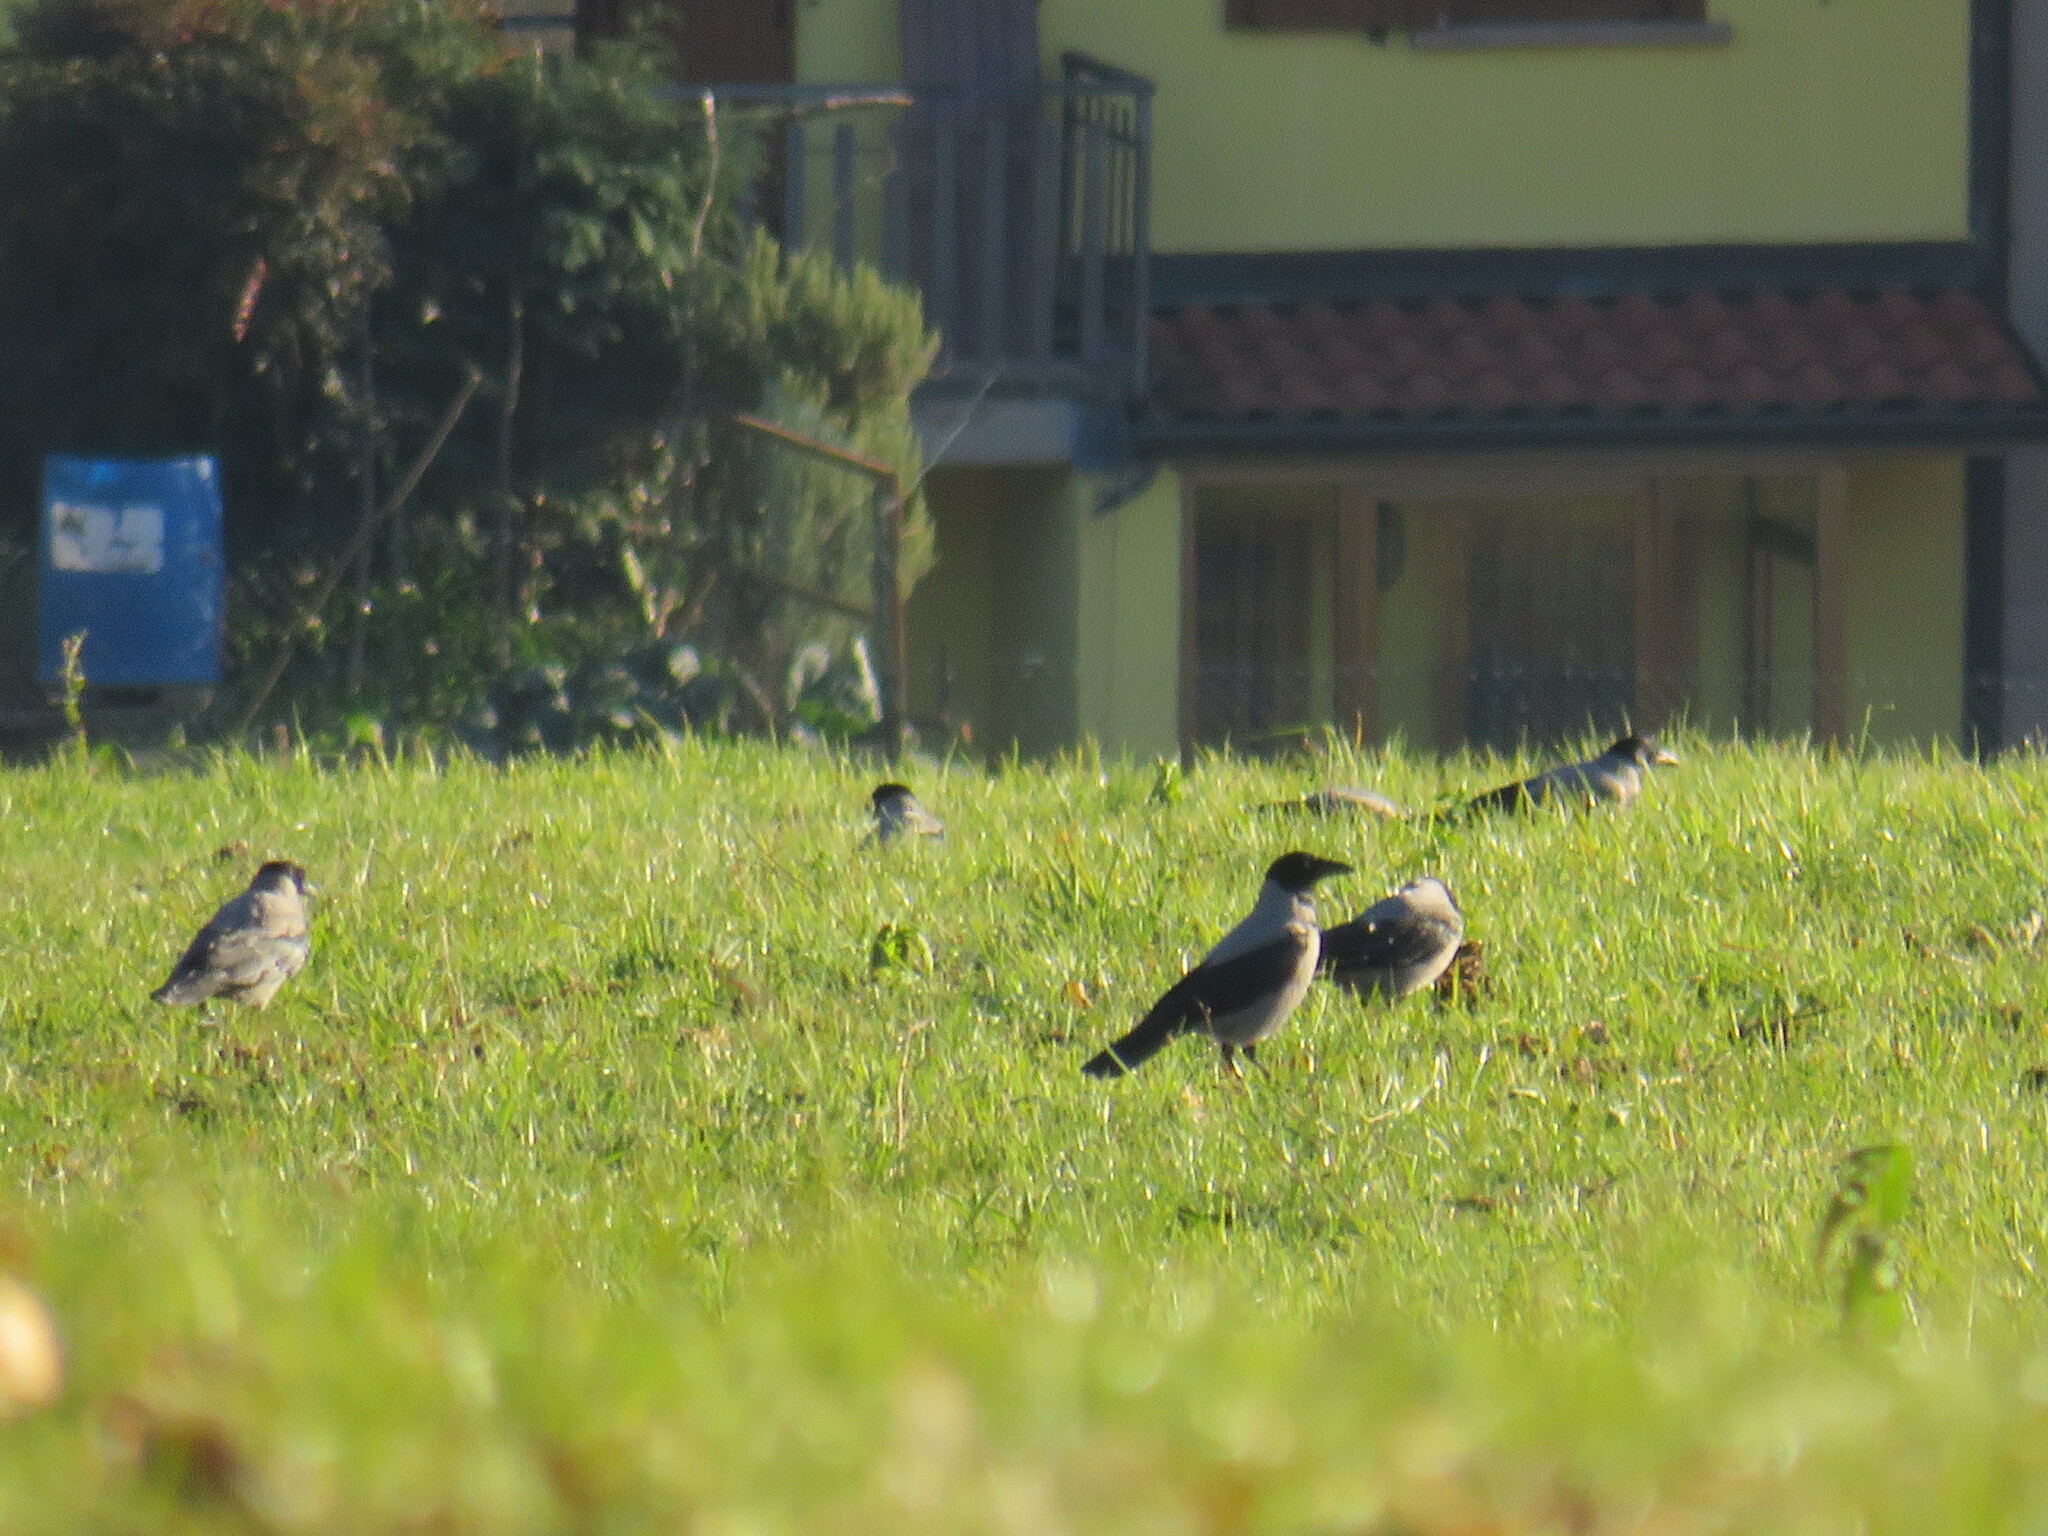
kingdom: Animalia
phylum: Chordata
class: Aves
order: Passeriformes
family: Corvidae
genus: Corvus
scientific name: Corvus cornix
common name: Hooded crow
